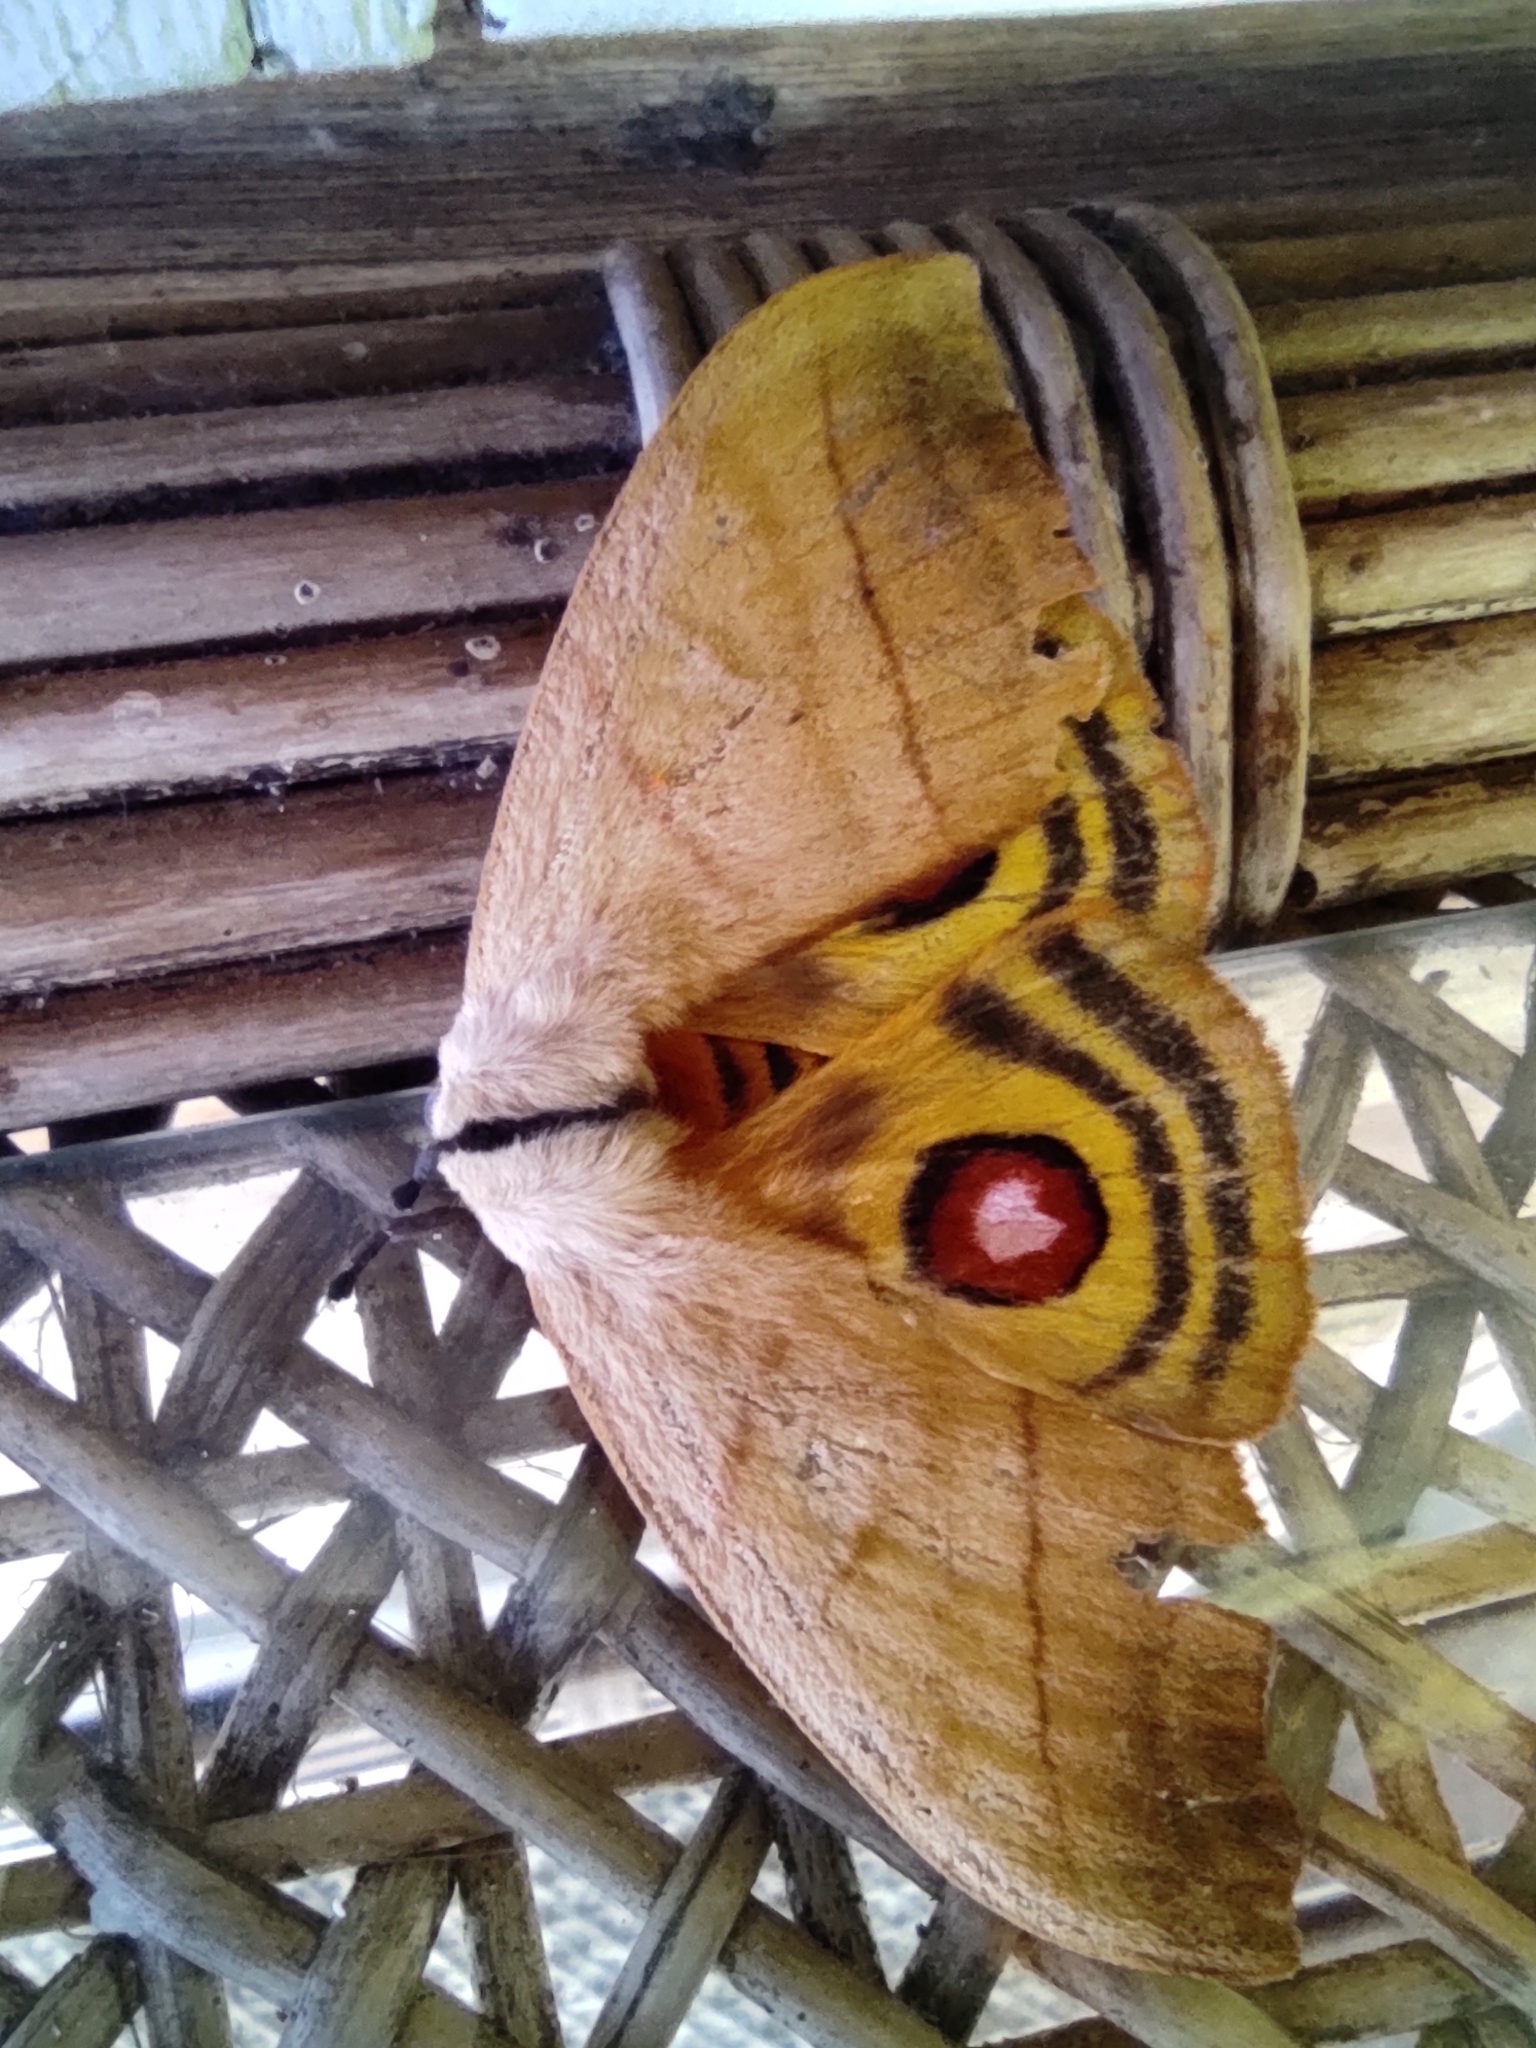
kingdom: Animalia
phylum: Arthropoda
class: Insecta
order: Lepidoptera
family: Saturniidae
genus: Hyperchiria
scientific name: Hyperchiria incisa
